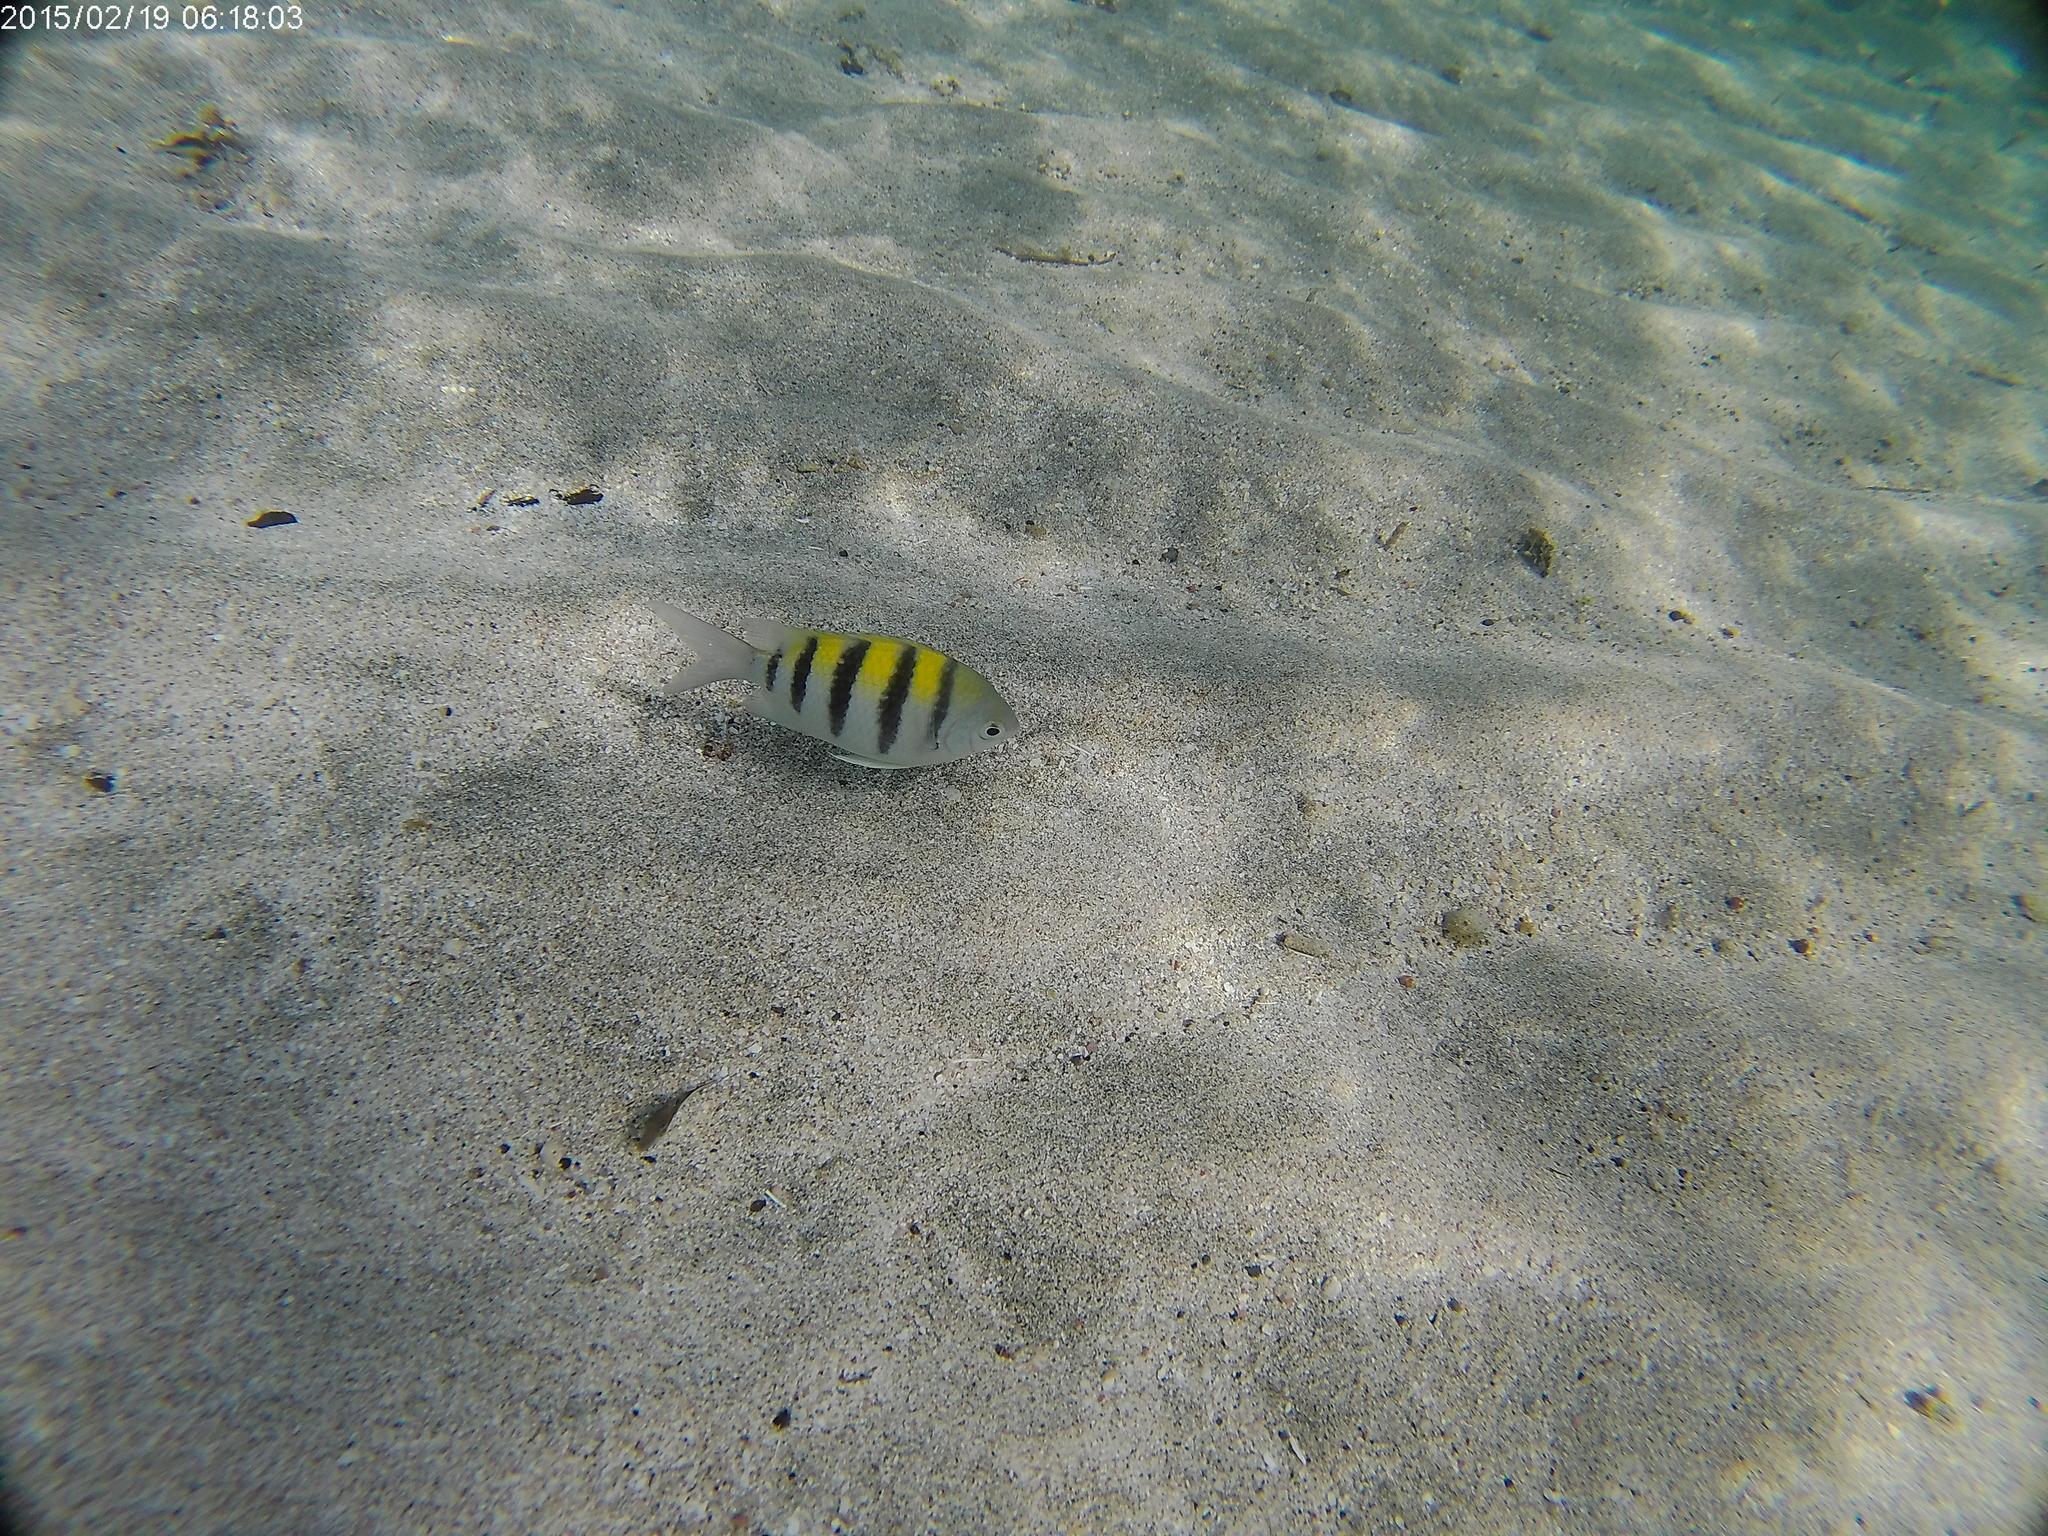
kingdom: Animalia
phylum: Chordata
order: Perciformes
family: Pomacentridae
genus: Abudefduf
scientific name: Abudefduf saxatilis
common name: Sergeant major
